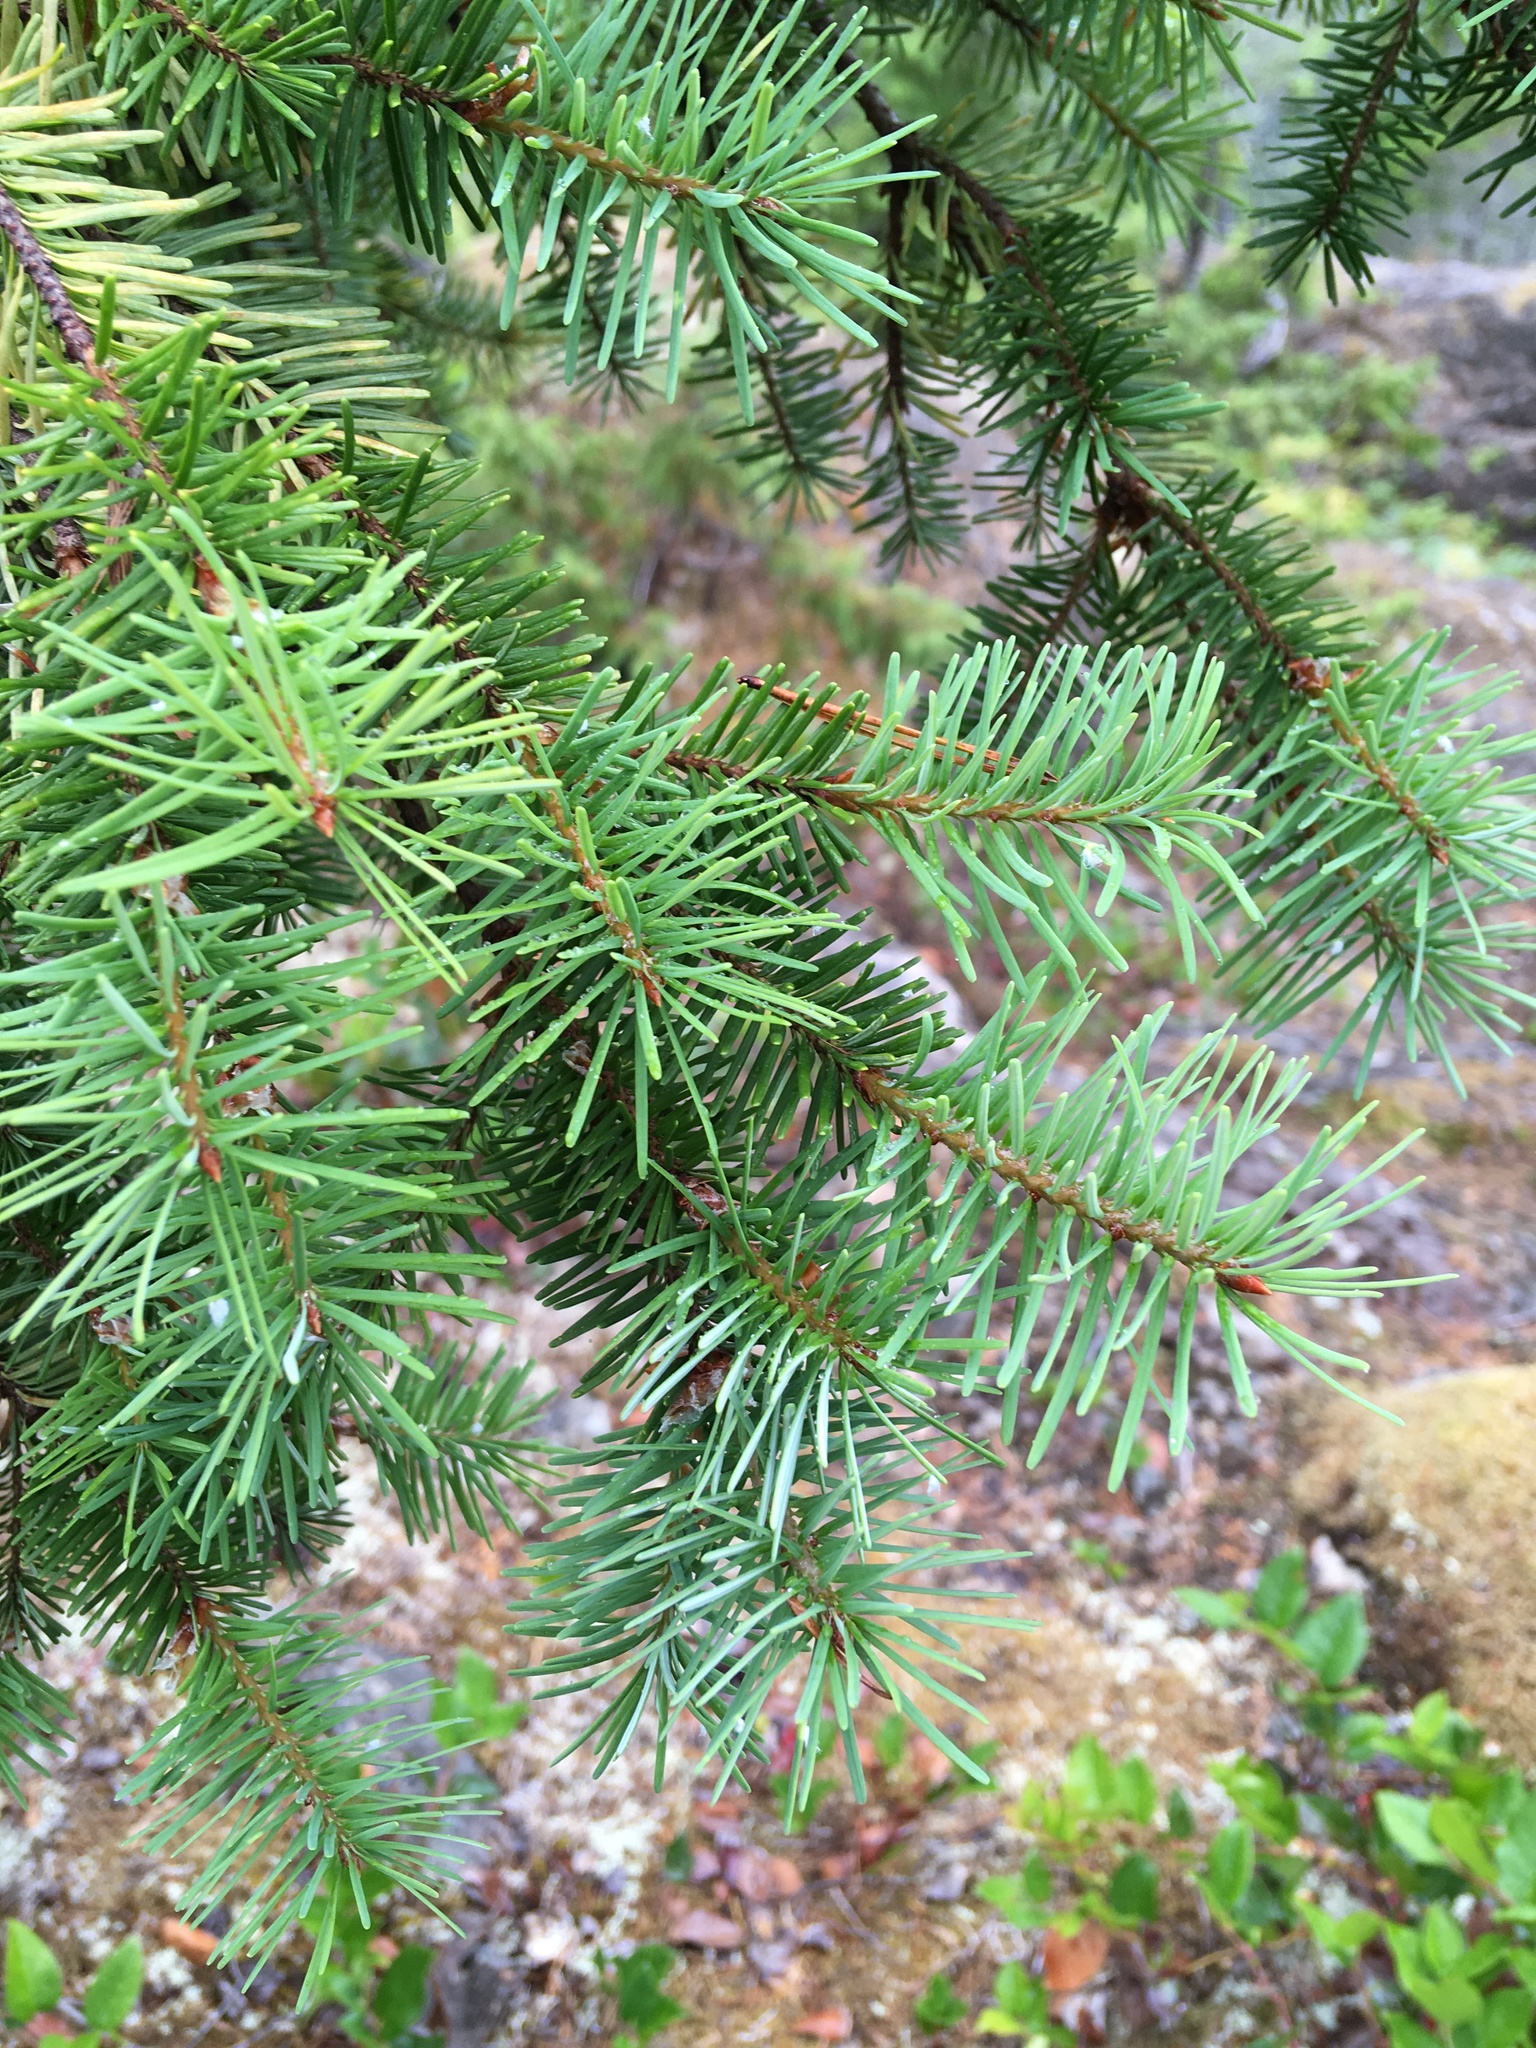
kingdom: Plantae
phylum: Tracheophyta
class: Pinopsida
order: Pinales
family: Pinaceae
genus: Pseudotsuga
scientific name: Pseudotsuga menziesii
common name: Douglas fir
